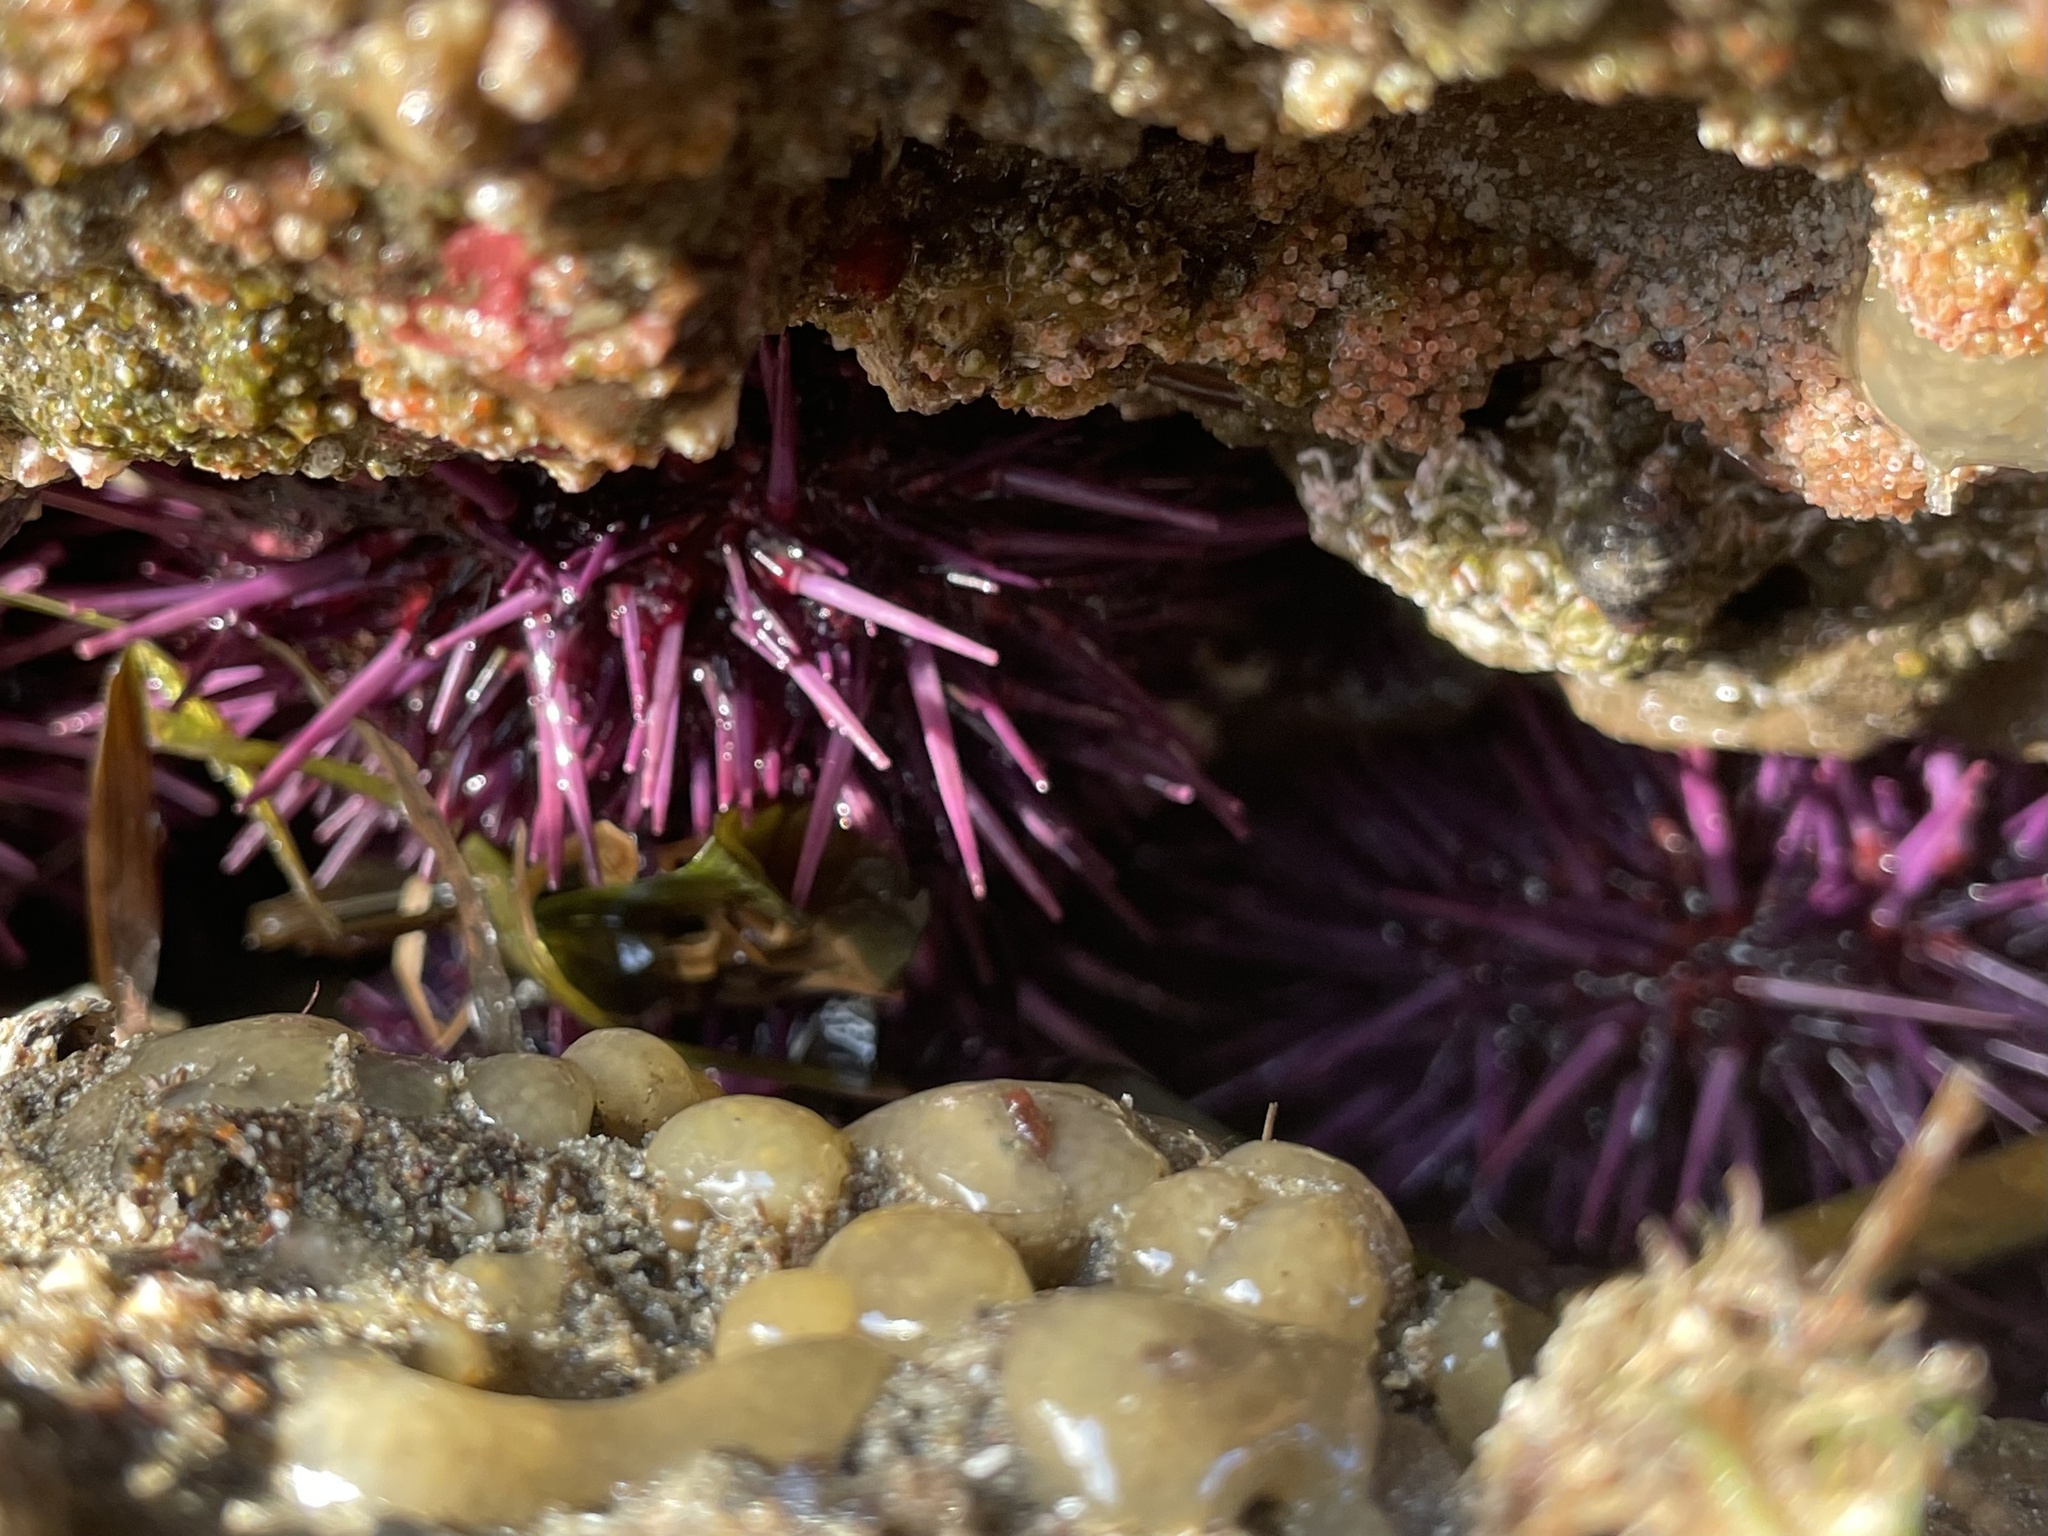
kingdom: Animalia
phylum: Echinodermata
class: Echinoidea
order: Camarodonta
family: Strongylocentrotidae
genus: Strongylocentrotus
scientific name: Strongylocentrotus purpuratus
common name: Purple sea urchin
